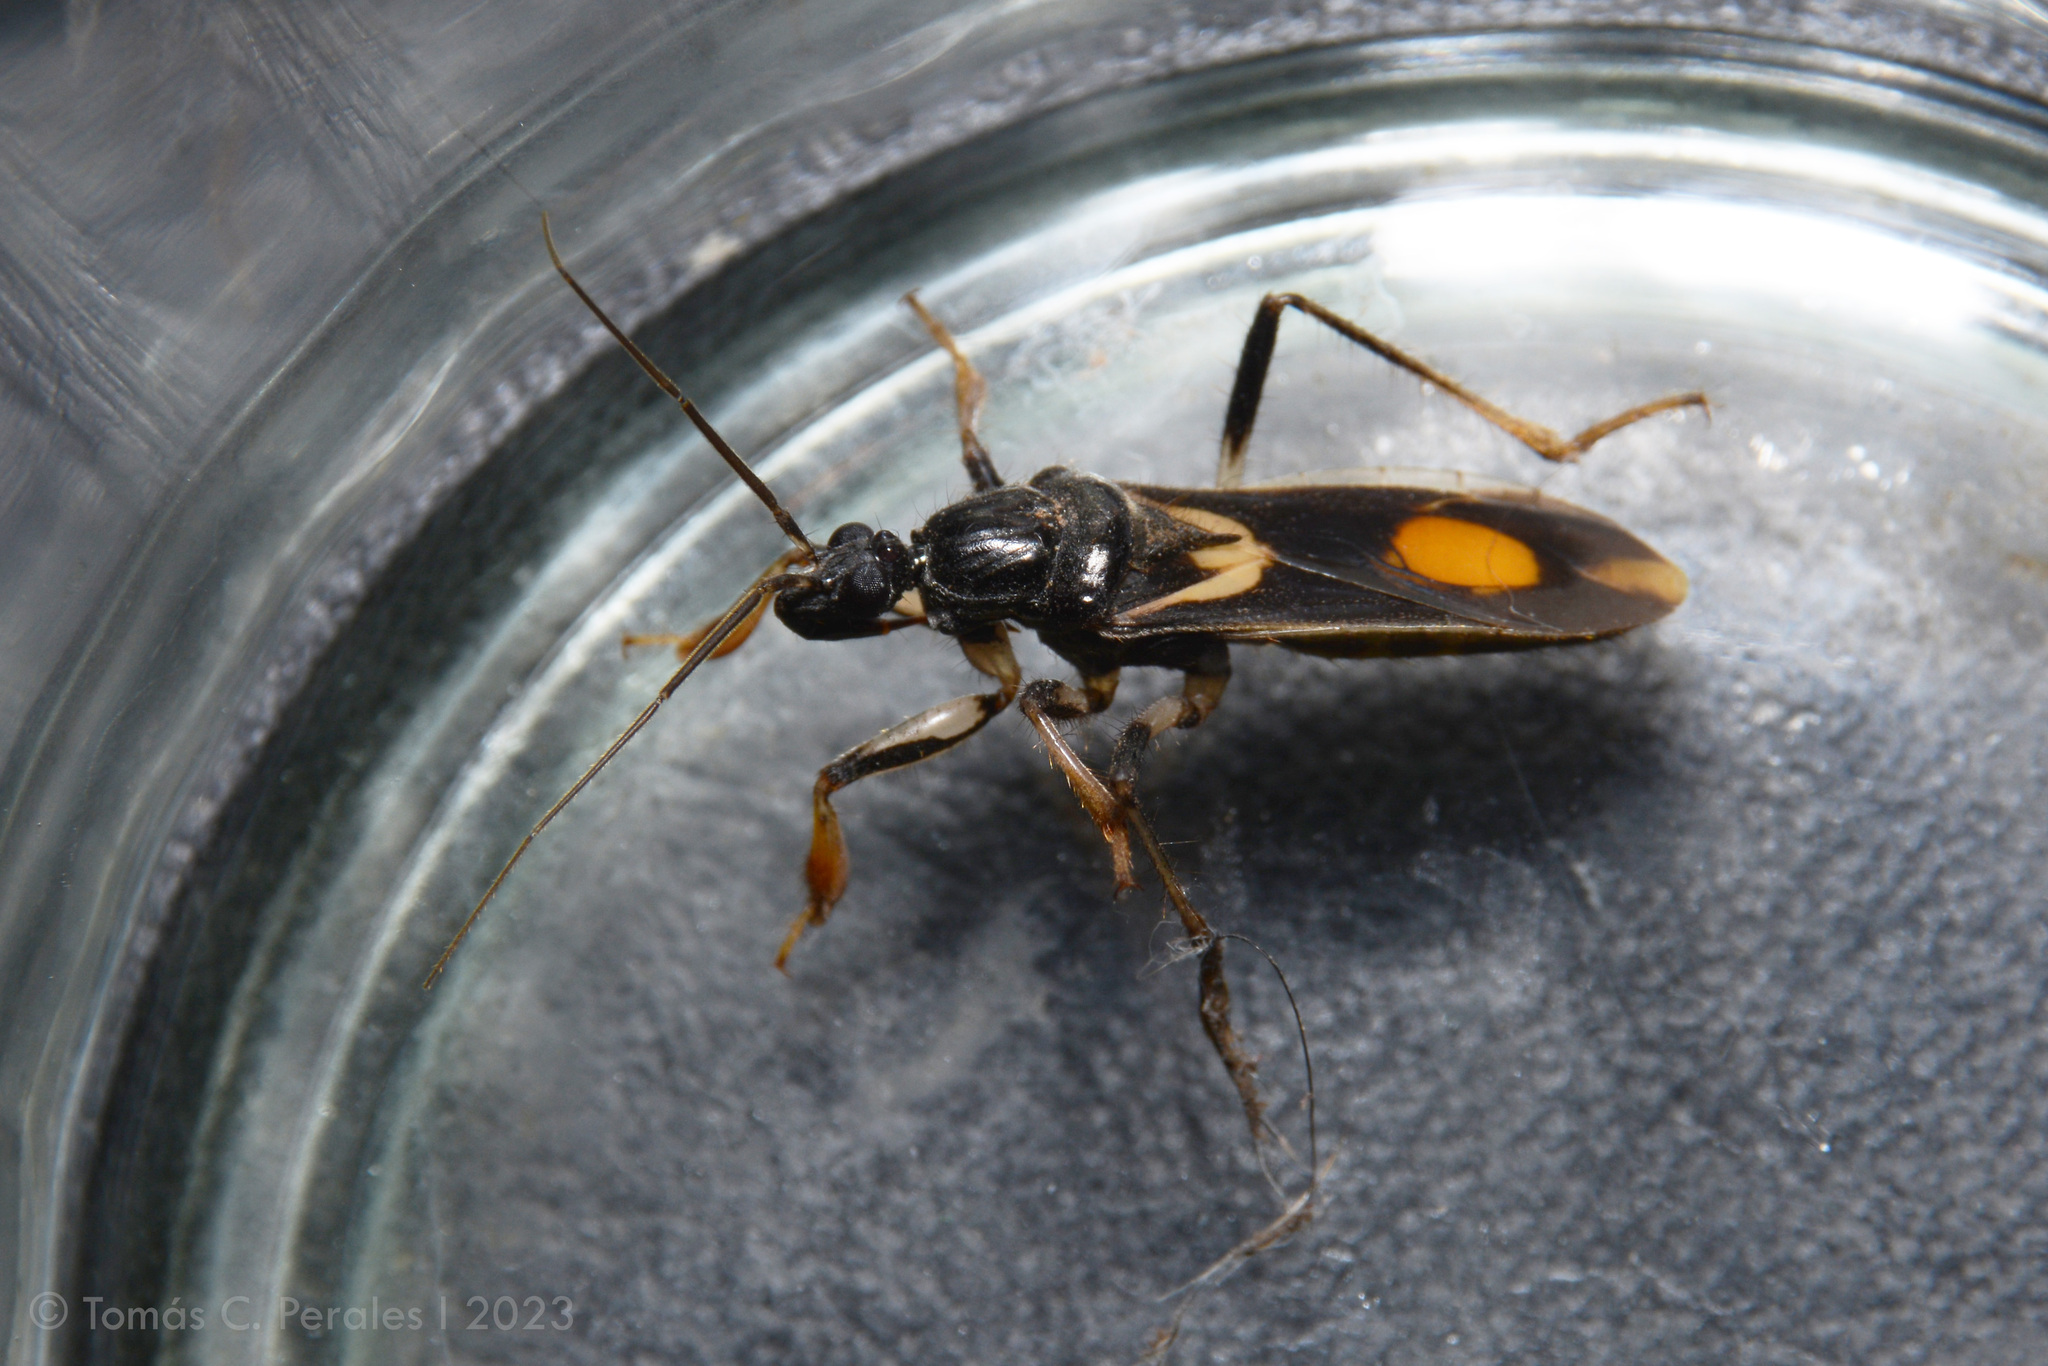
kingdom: Animalia
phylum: Arthropoda
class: Insecta
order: Hemiptera
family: Reduviidae
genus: Rasahus
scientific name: Rasahus hamatus
